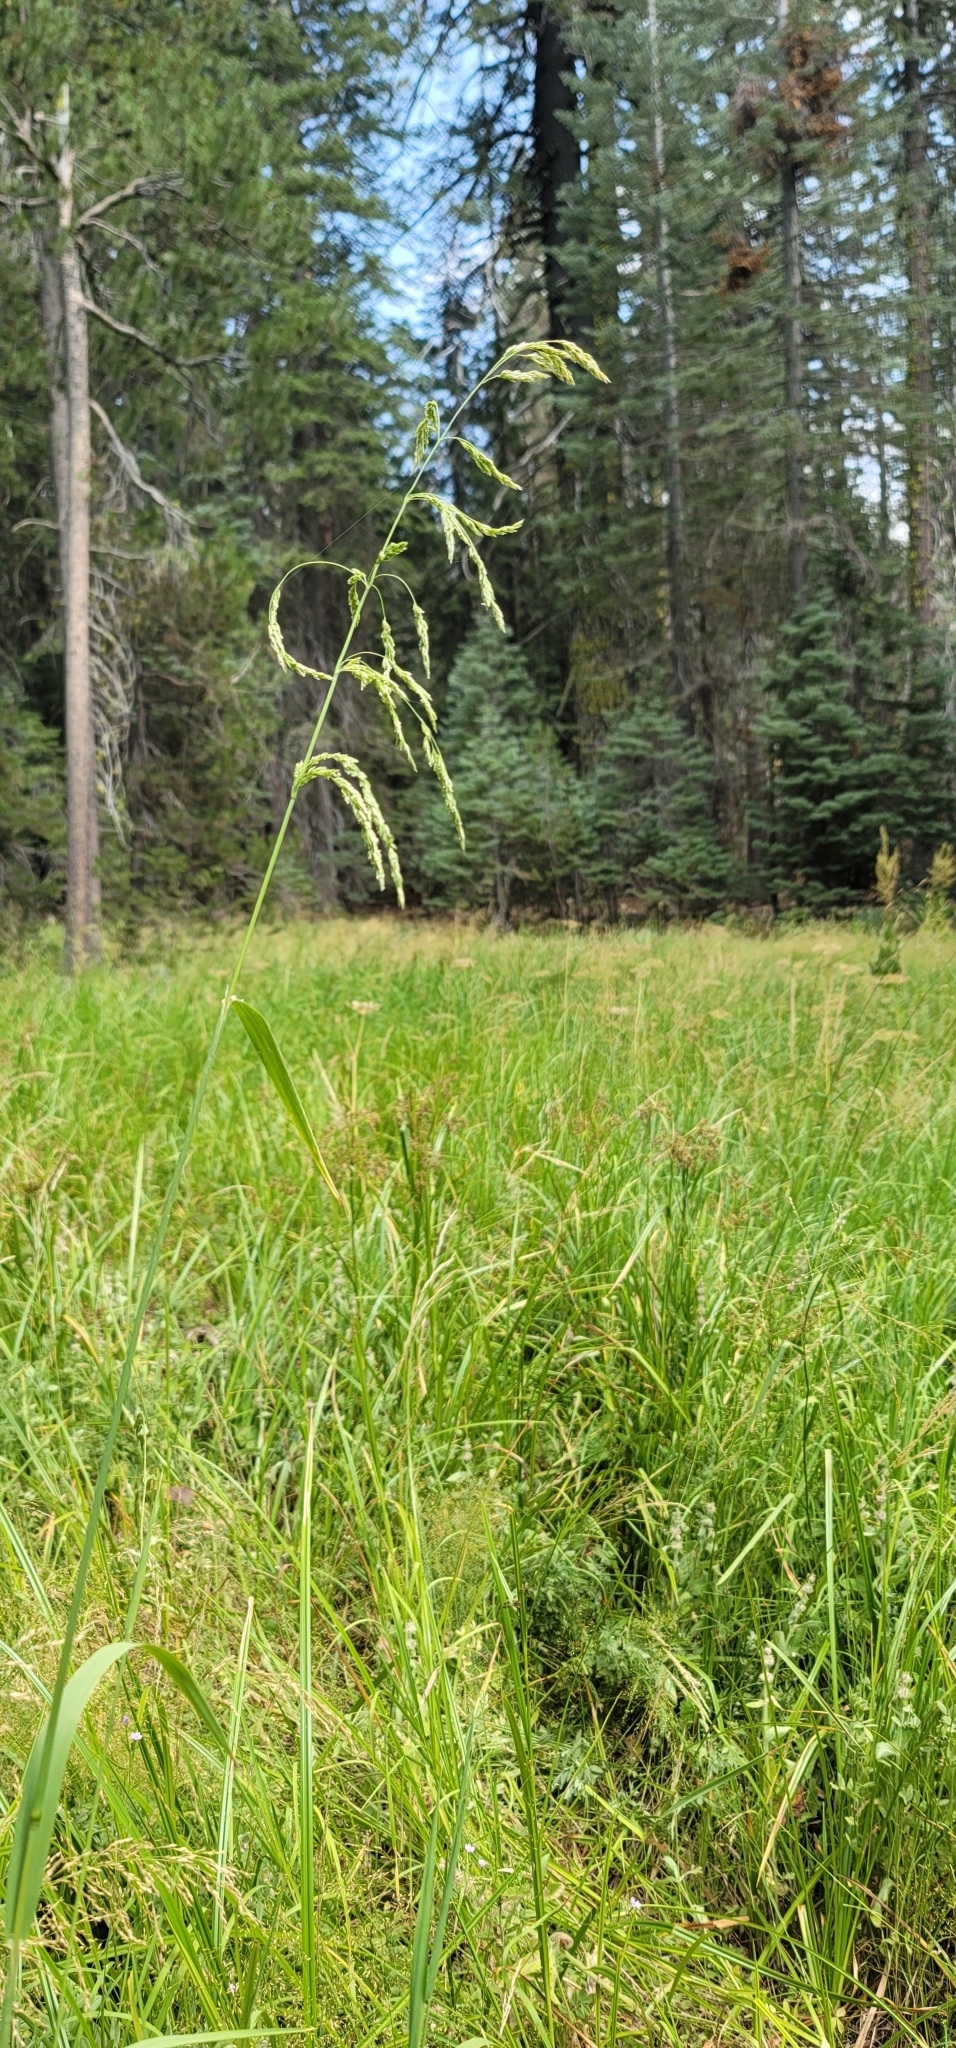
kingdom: Plantae
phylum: Tracheophyta
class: Liliopsida
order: Poales
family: Poaceae
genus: Cinna
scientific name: Cinna bolanderi
